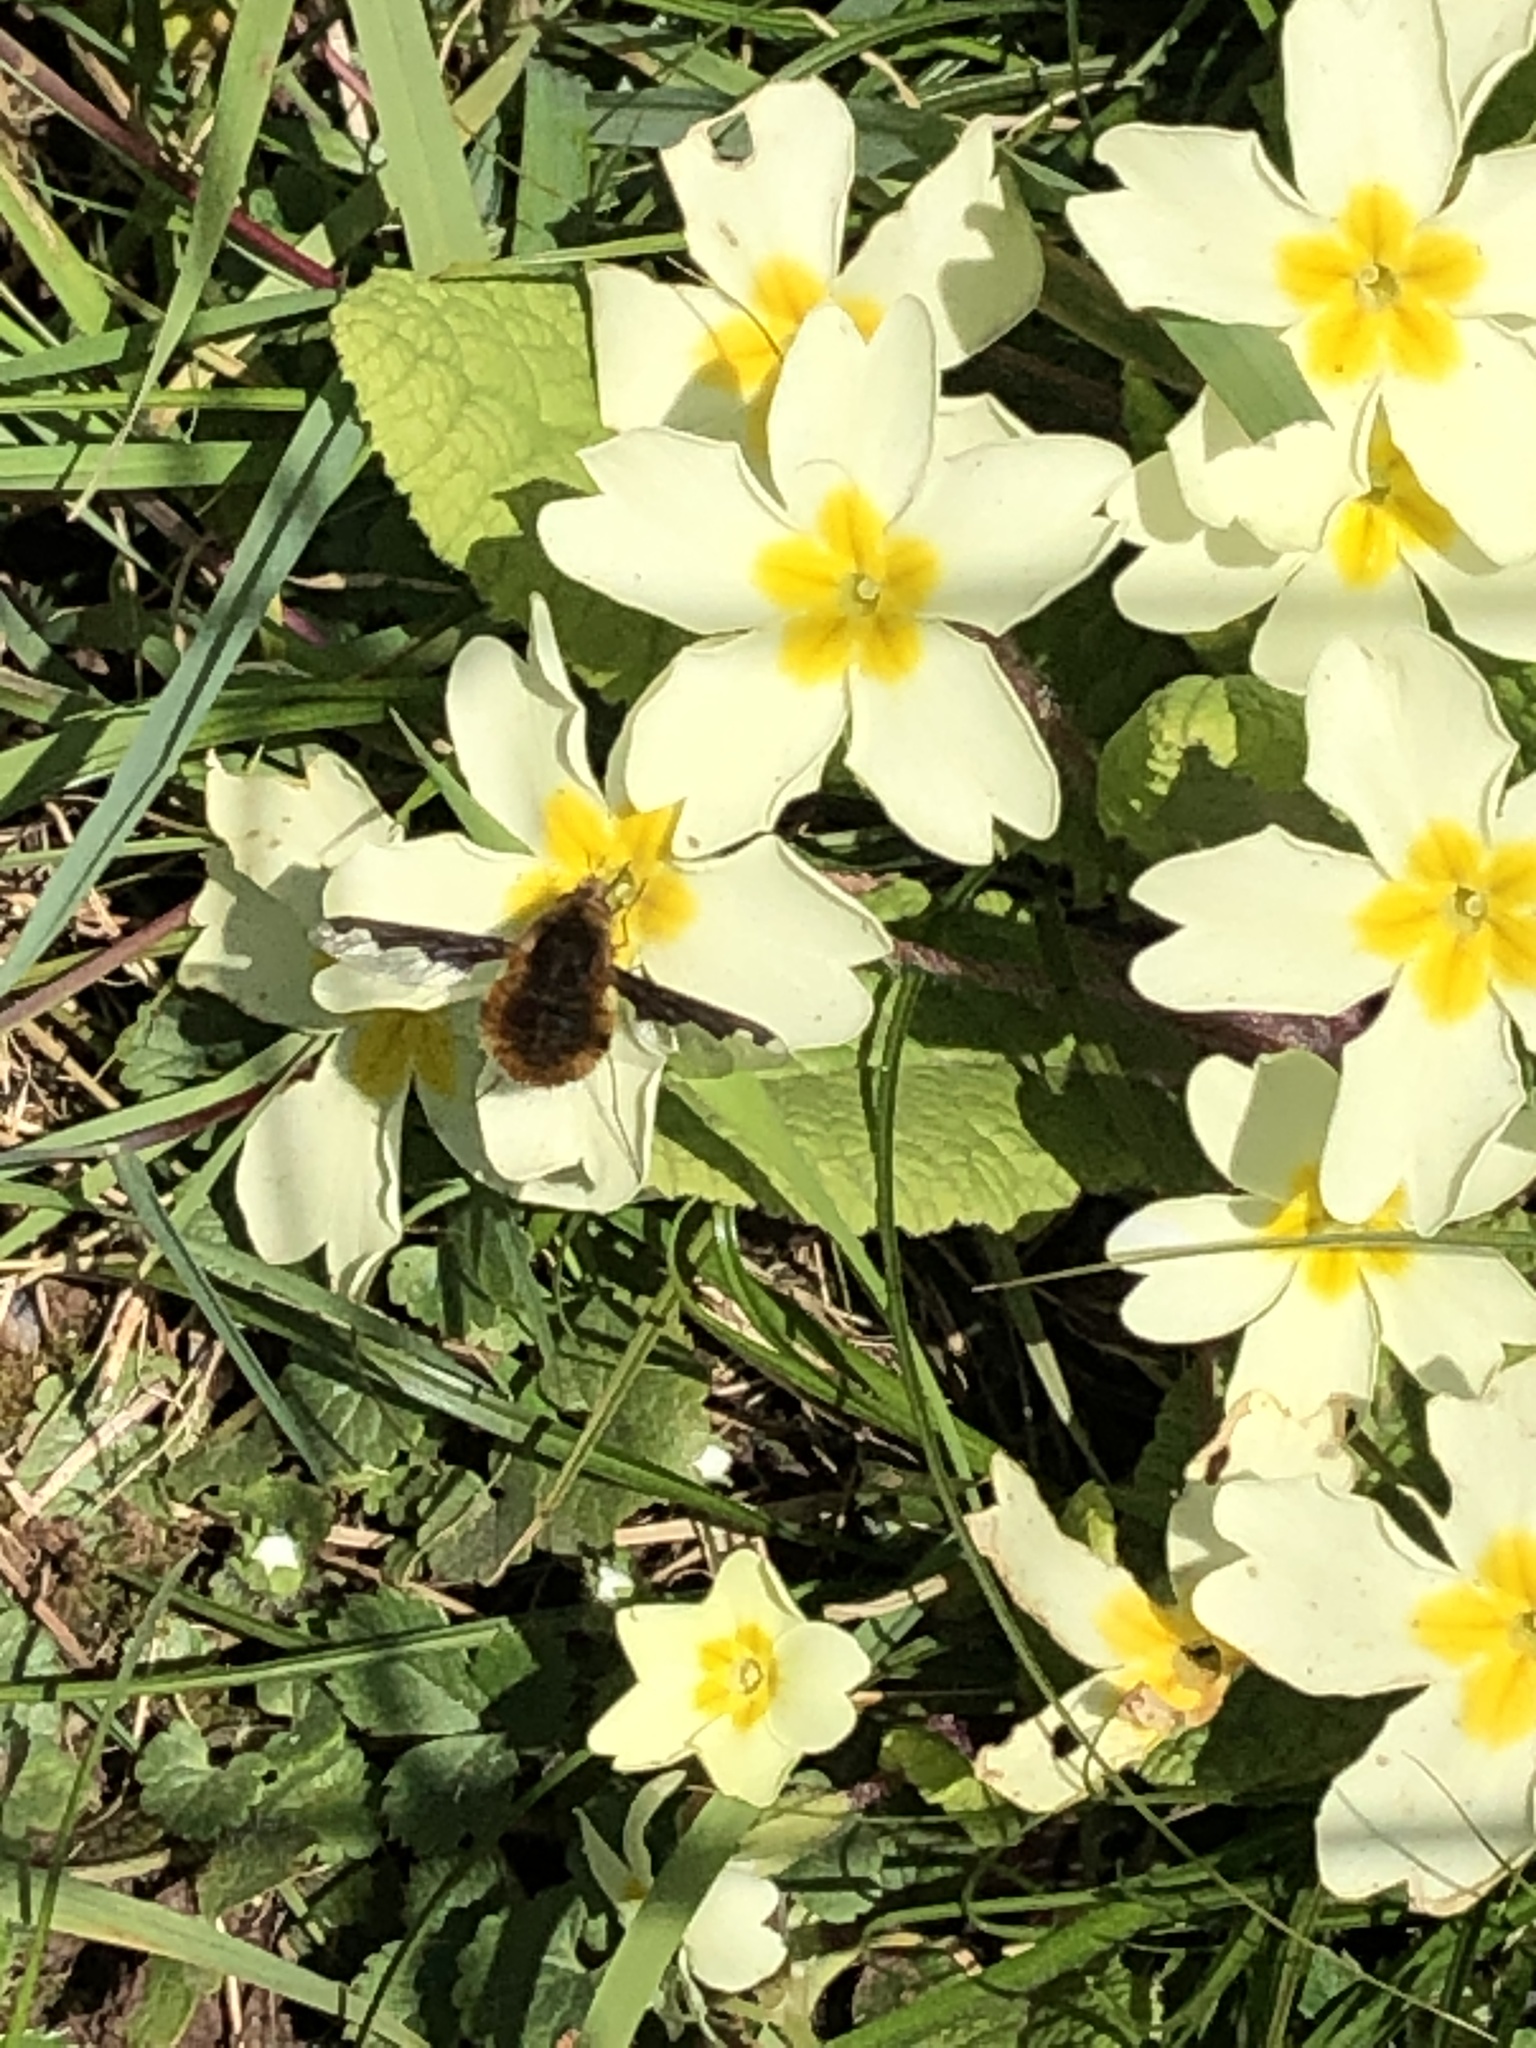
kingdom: Animalia
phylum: Arthropoda
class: Insecta
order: Diptera
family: Bombyliidae
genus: Bombylius
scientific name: Bombylius major
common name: Bee fly
